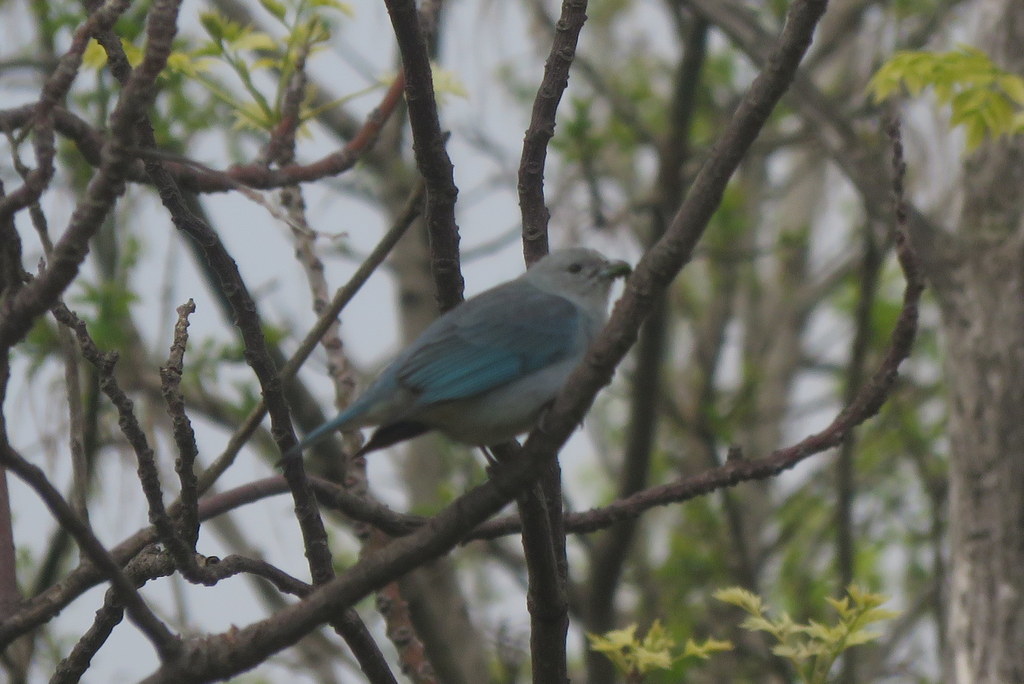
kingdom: Animalia
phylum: Chordata
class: Aves
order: Passeriformes
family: Thraupidae
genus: Thraupis
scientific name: Thraupis sayaca
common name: Sayaca tanager
